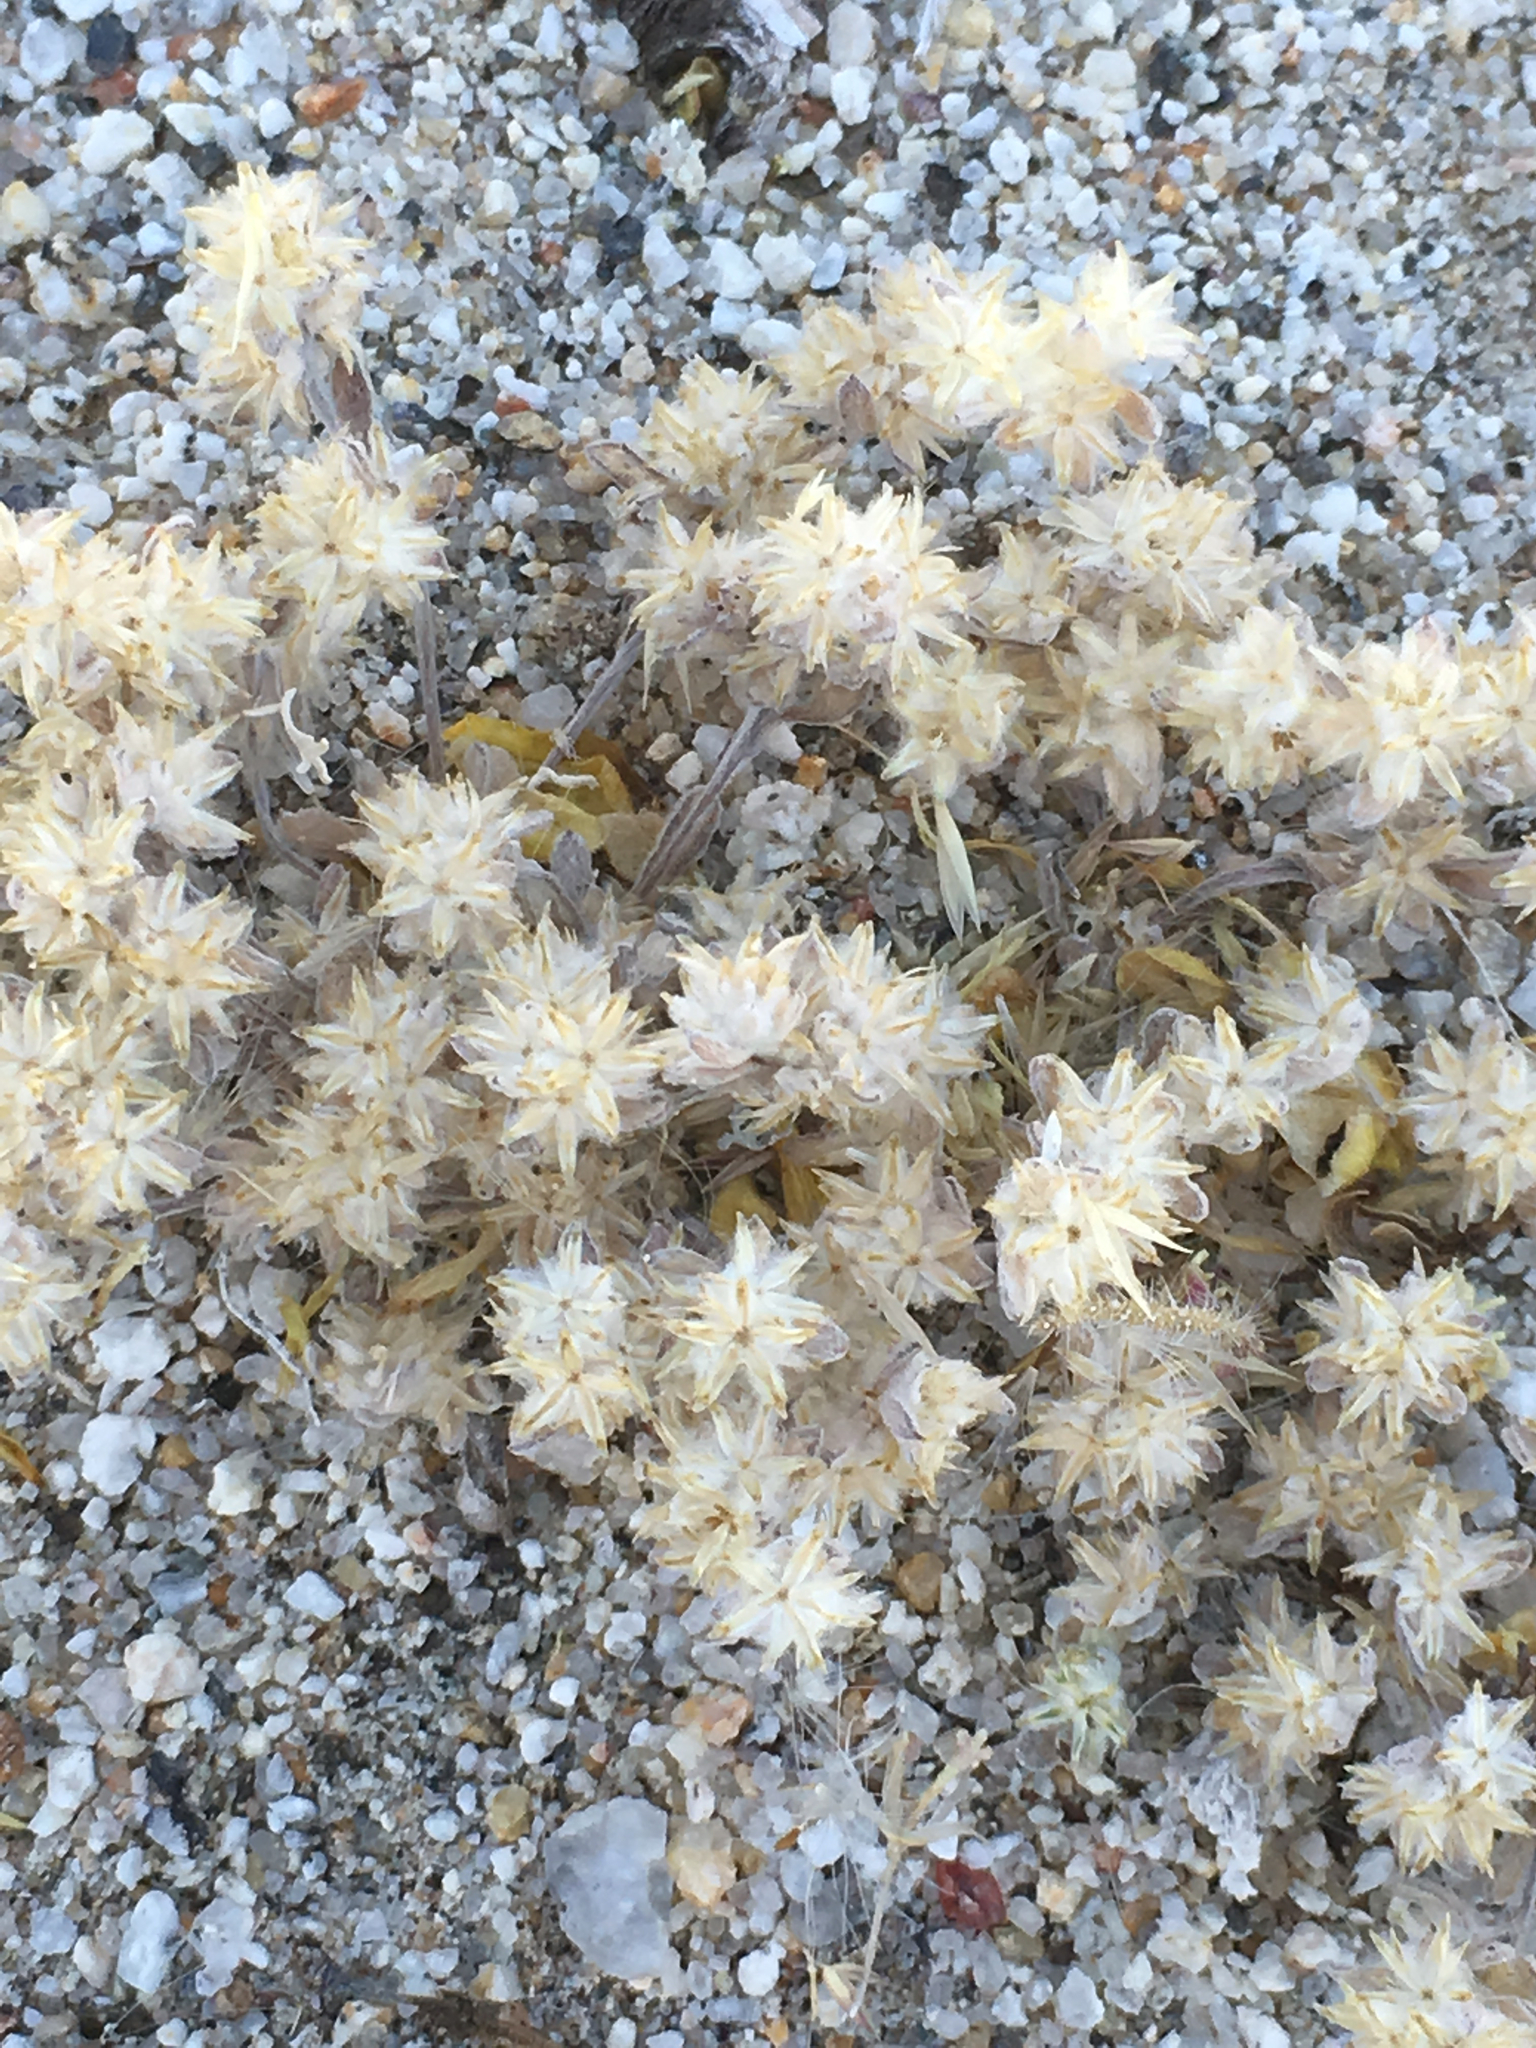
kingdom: Plantae
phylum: Tracheophyta
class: Magnoliopsida
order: Asterales
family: Asteraceae
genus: Logfia
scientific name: Logfia depressa
